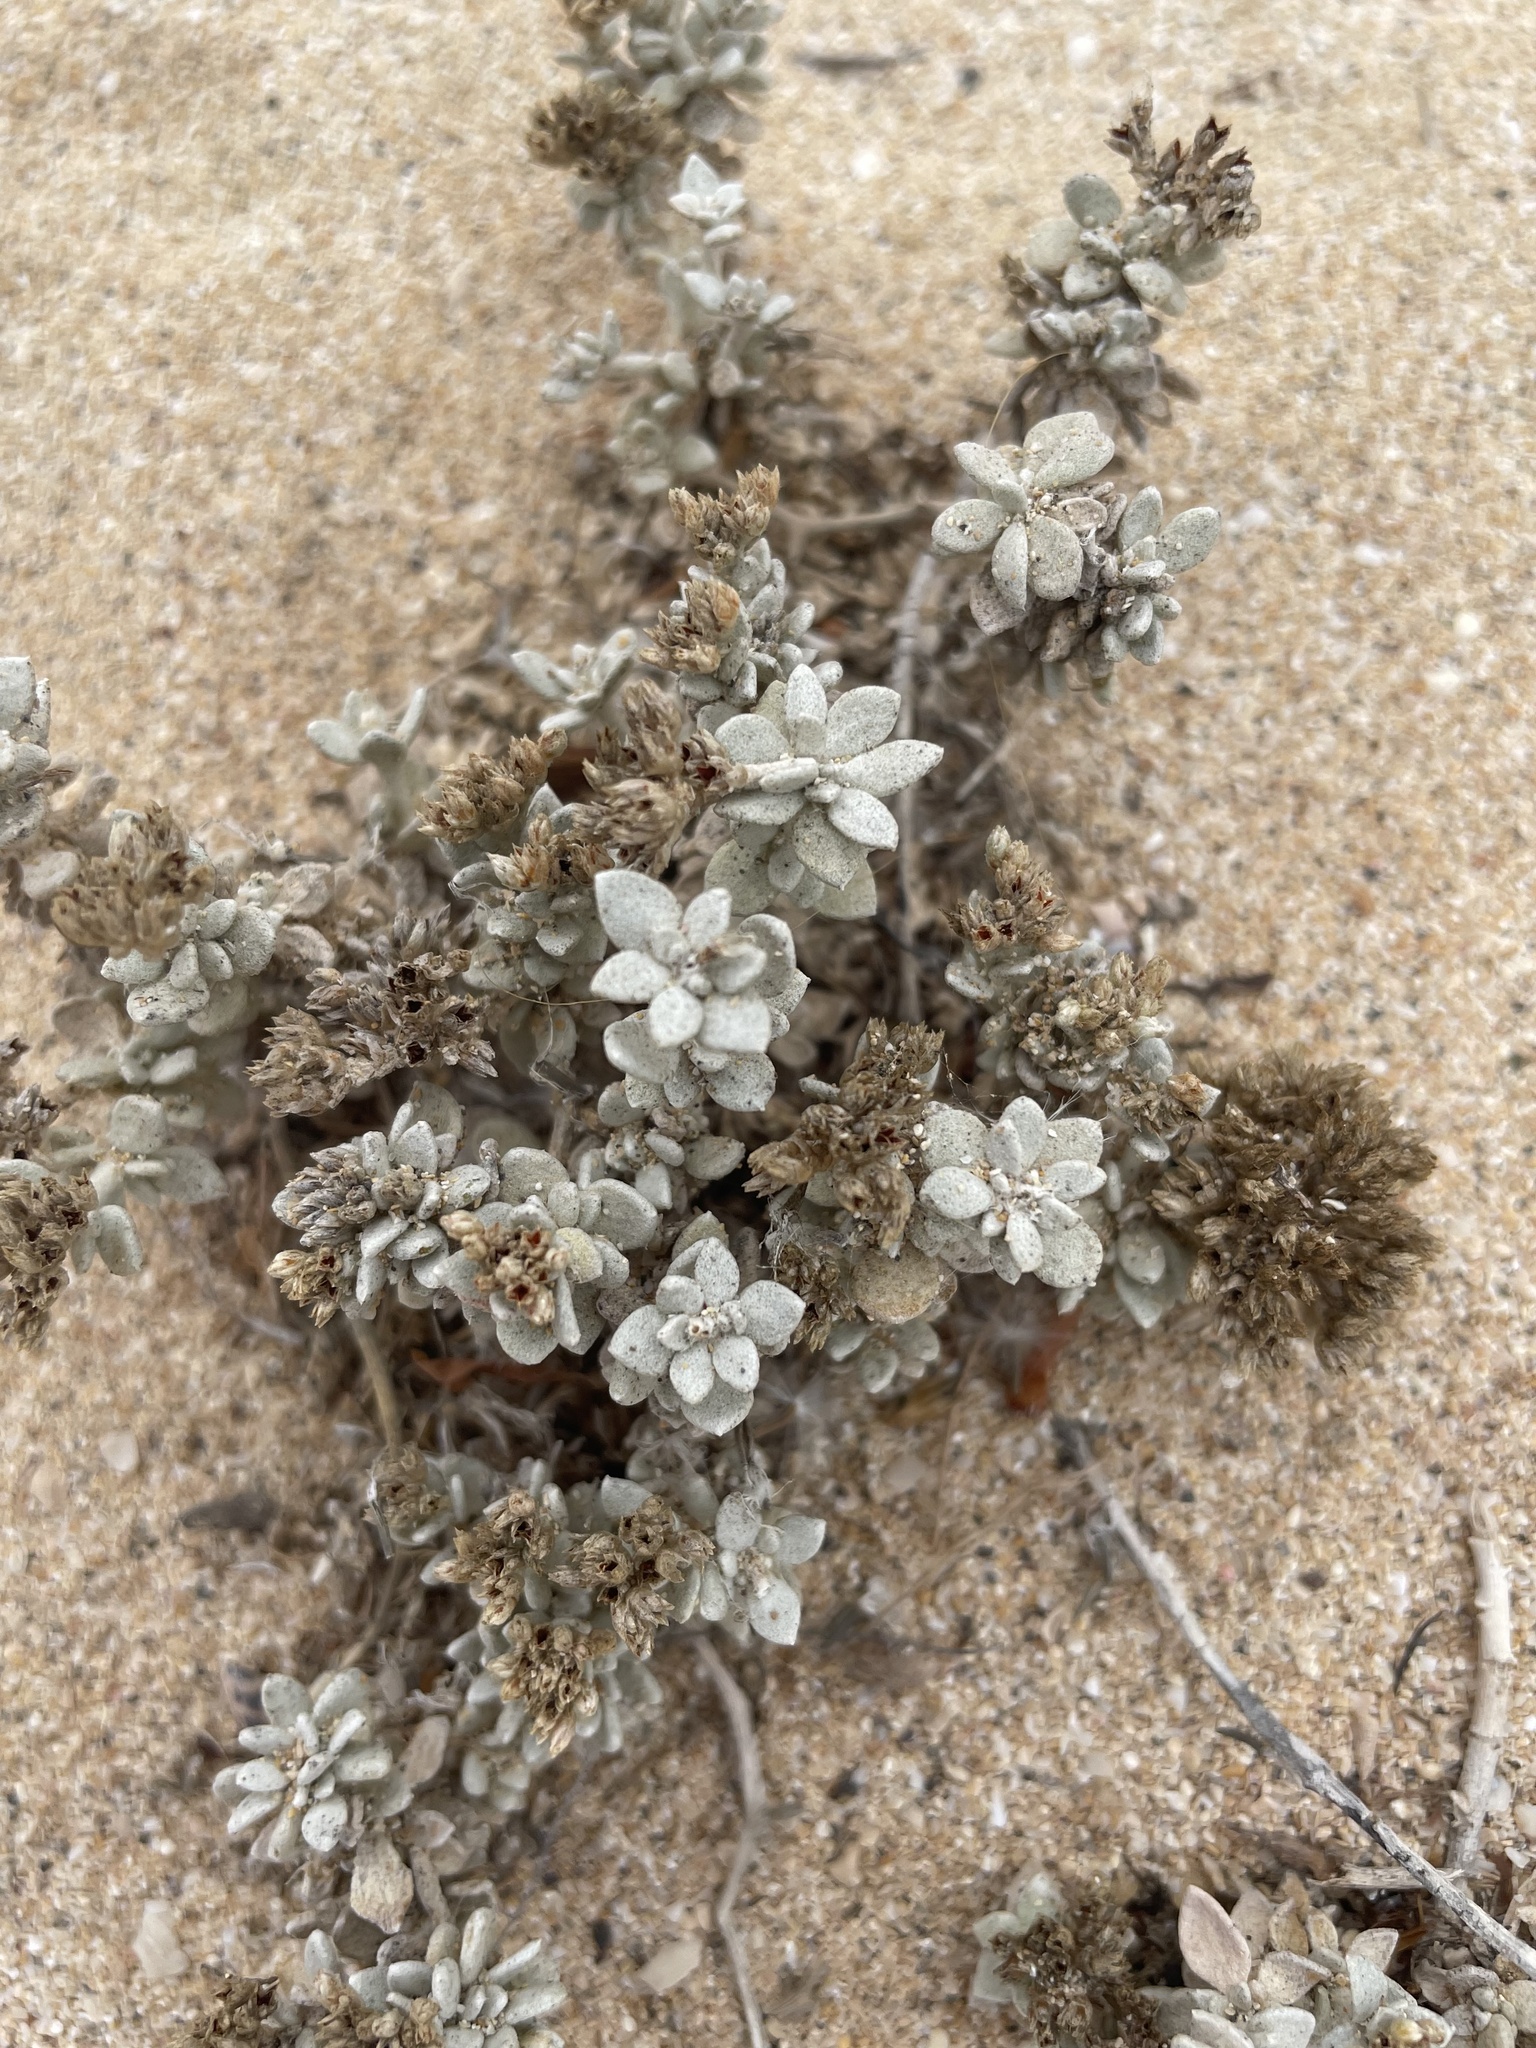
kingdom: Plantae
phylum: Tracheophyta
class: Magnoliopsida
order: Caryophyllales
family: Caryophyllaceae
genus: Polycarpaea
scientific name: Polycarpaea nivea
